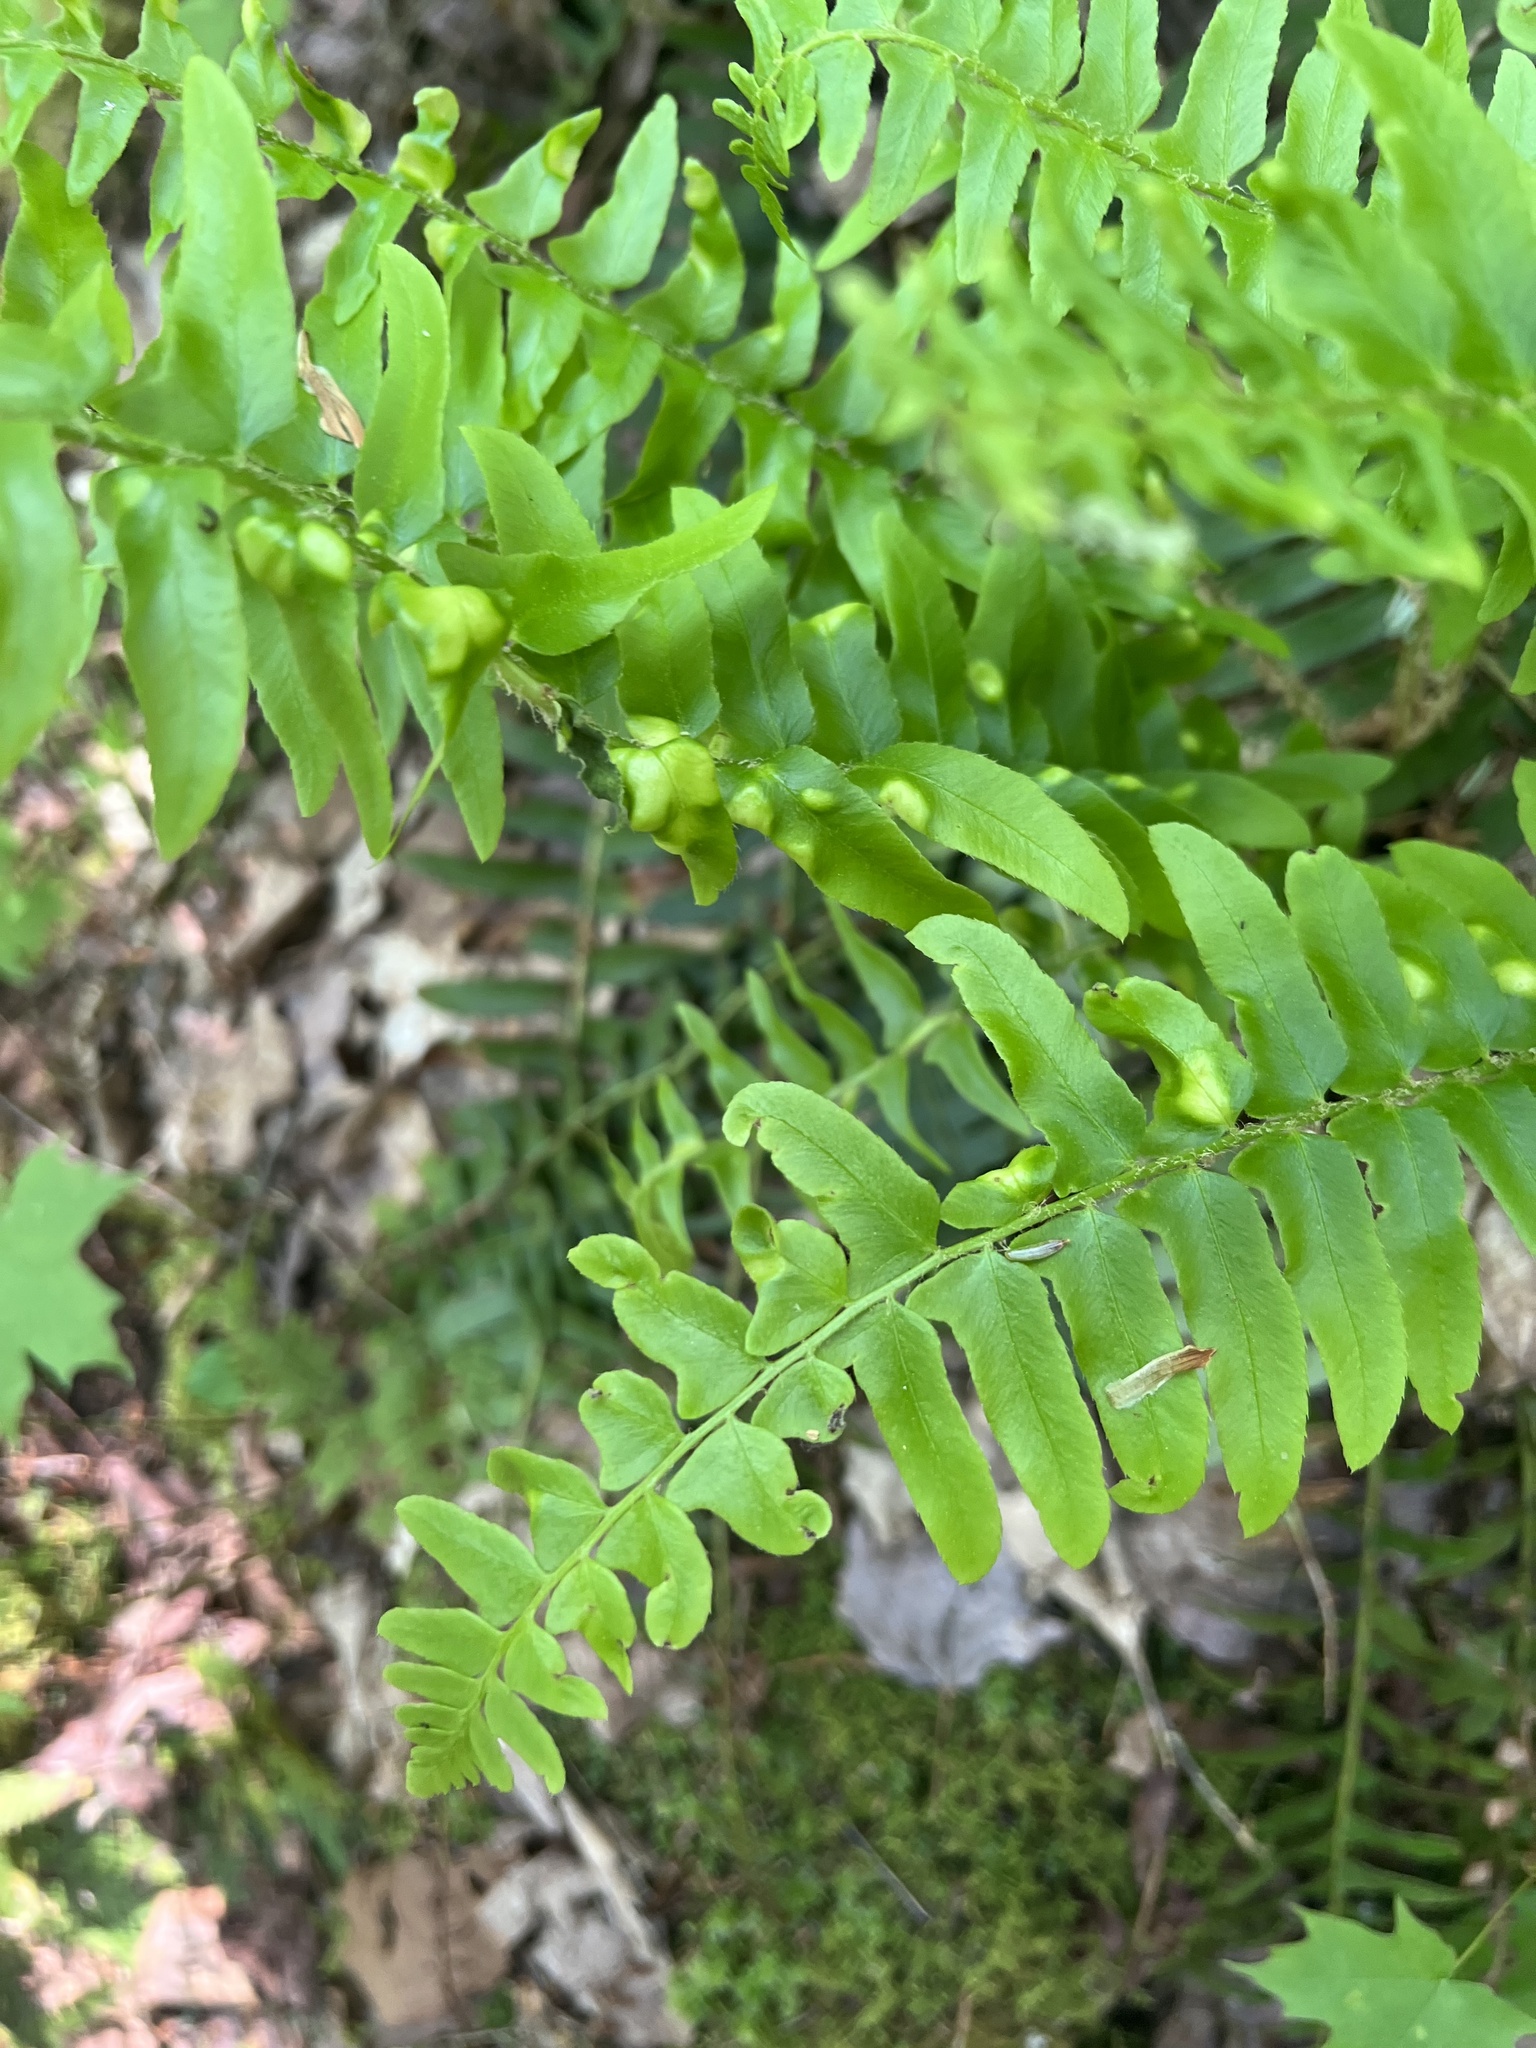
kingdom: Fungi
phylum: Ascomycota
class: Taphrinomycetes
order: Taphrinales
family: Taphrinaceae
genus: Taphrina
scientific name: Taphrina polystichi
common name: Christmas fern leaf curl
